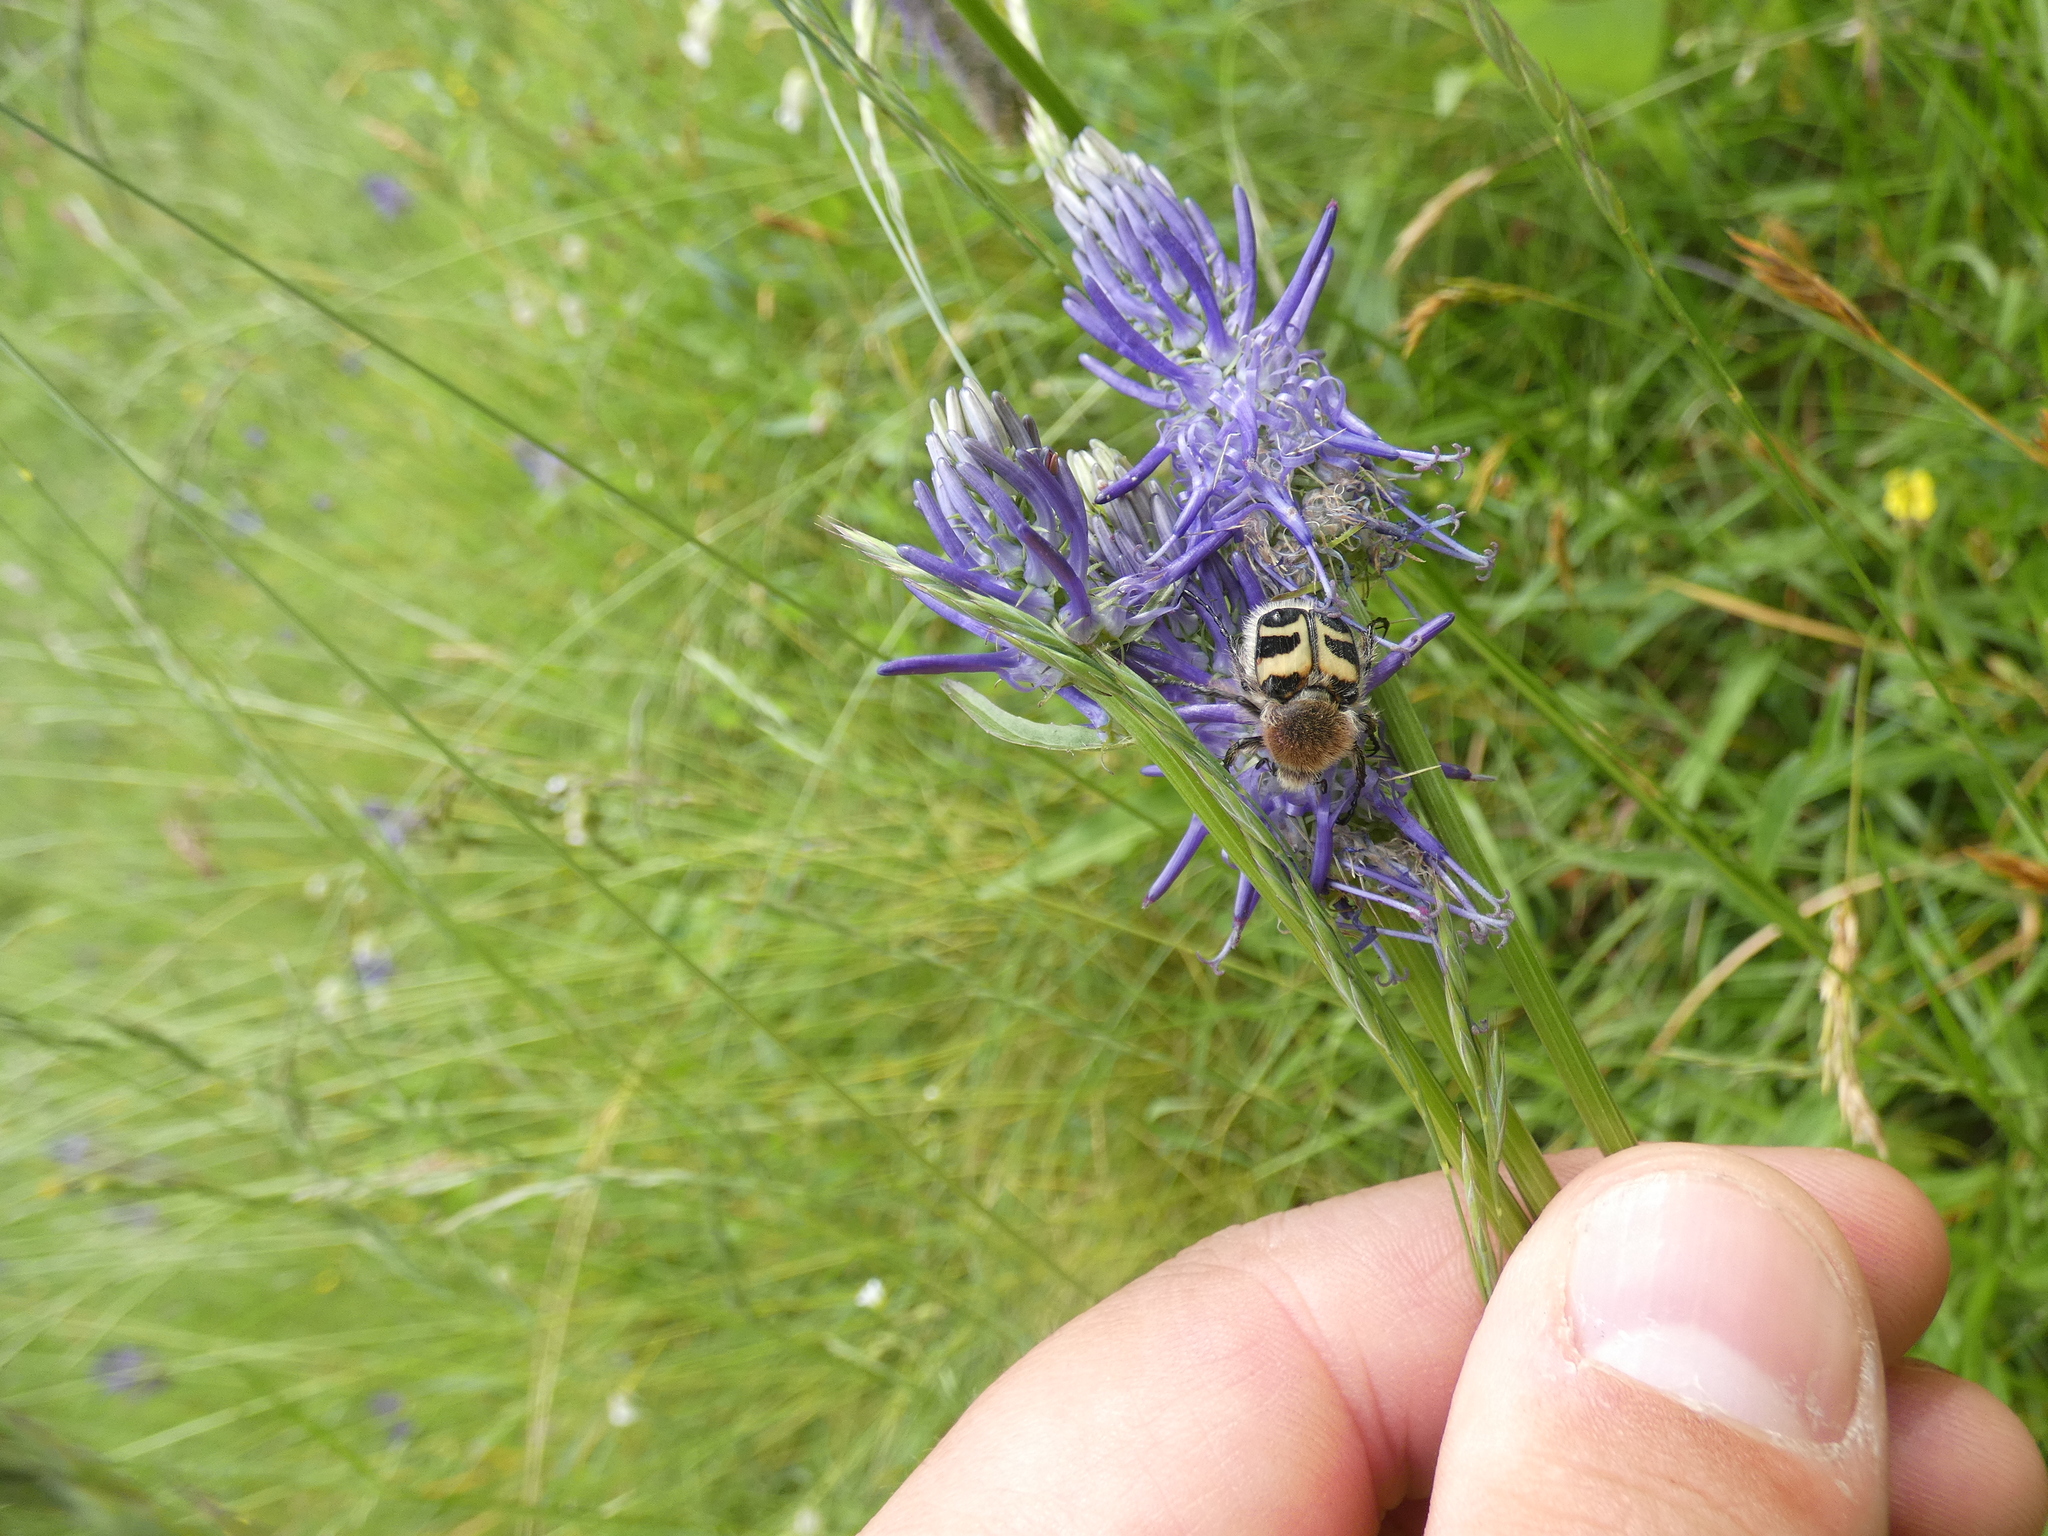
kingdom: Animalia
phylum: Arthropoda
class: Insecta
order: Coleoptera
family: Scarabaeidae
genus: Trichius
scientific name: Trichius fasciatus
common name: Bee beetle
